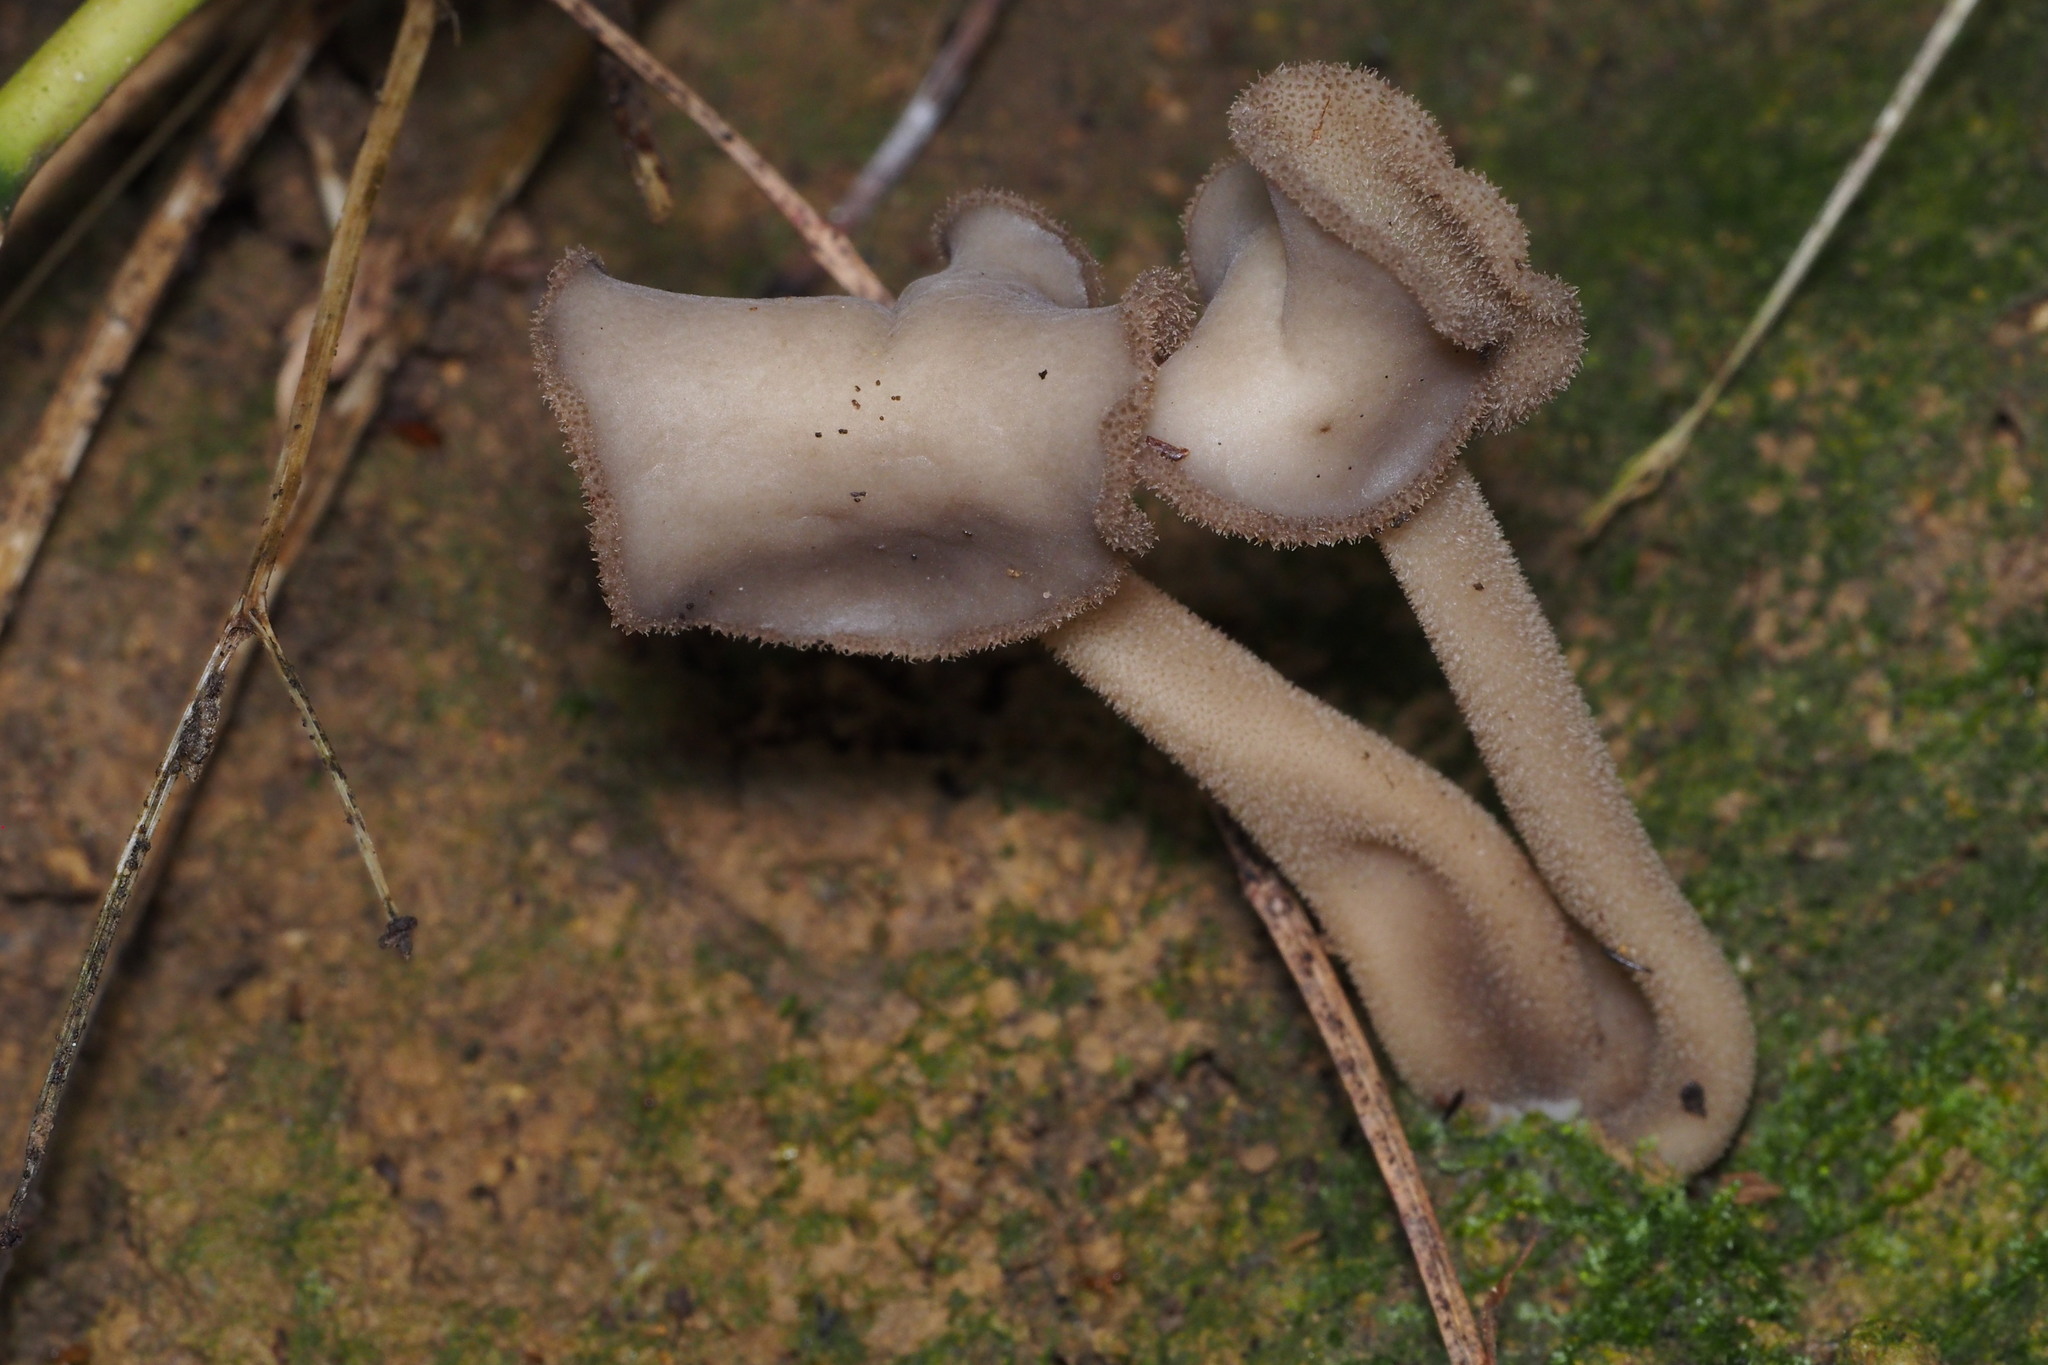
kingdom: Fungi
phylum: Ascomycota
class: Pezizomycetes
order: Pezizales
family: Helvellaceae
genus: Helvella
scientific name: Helvella macropus
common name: Felt saddle
